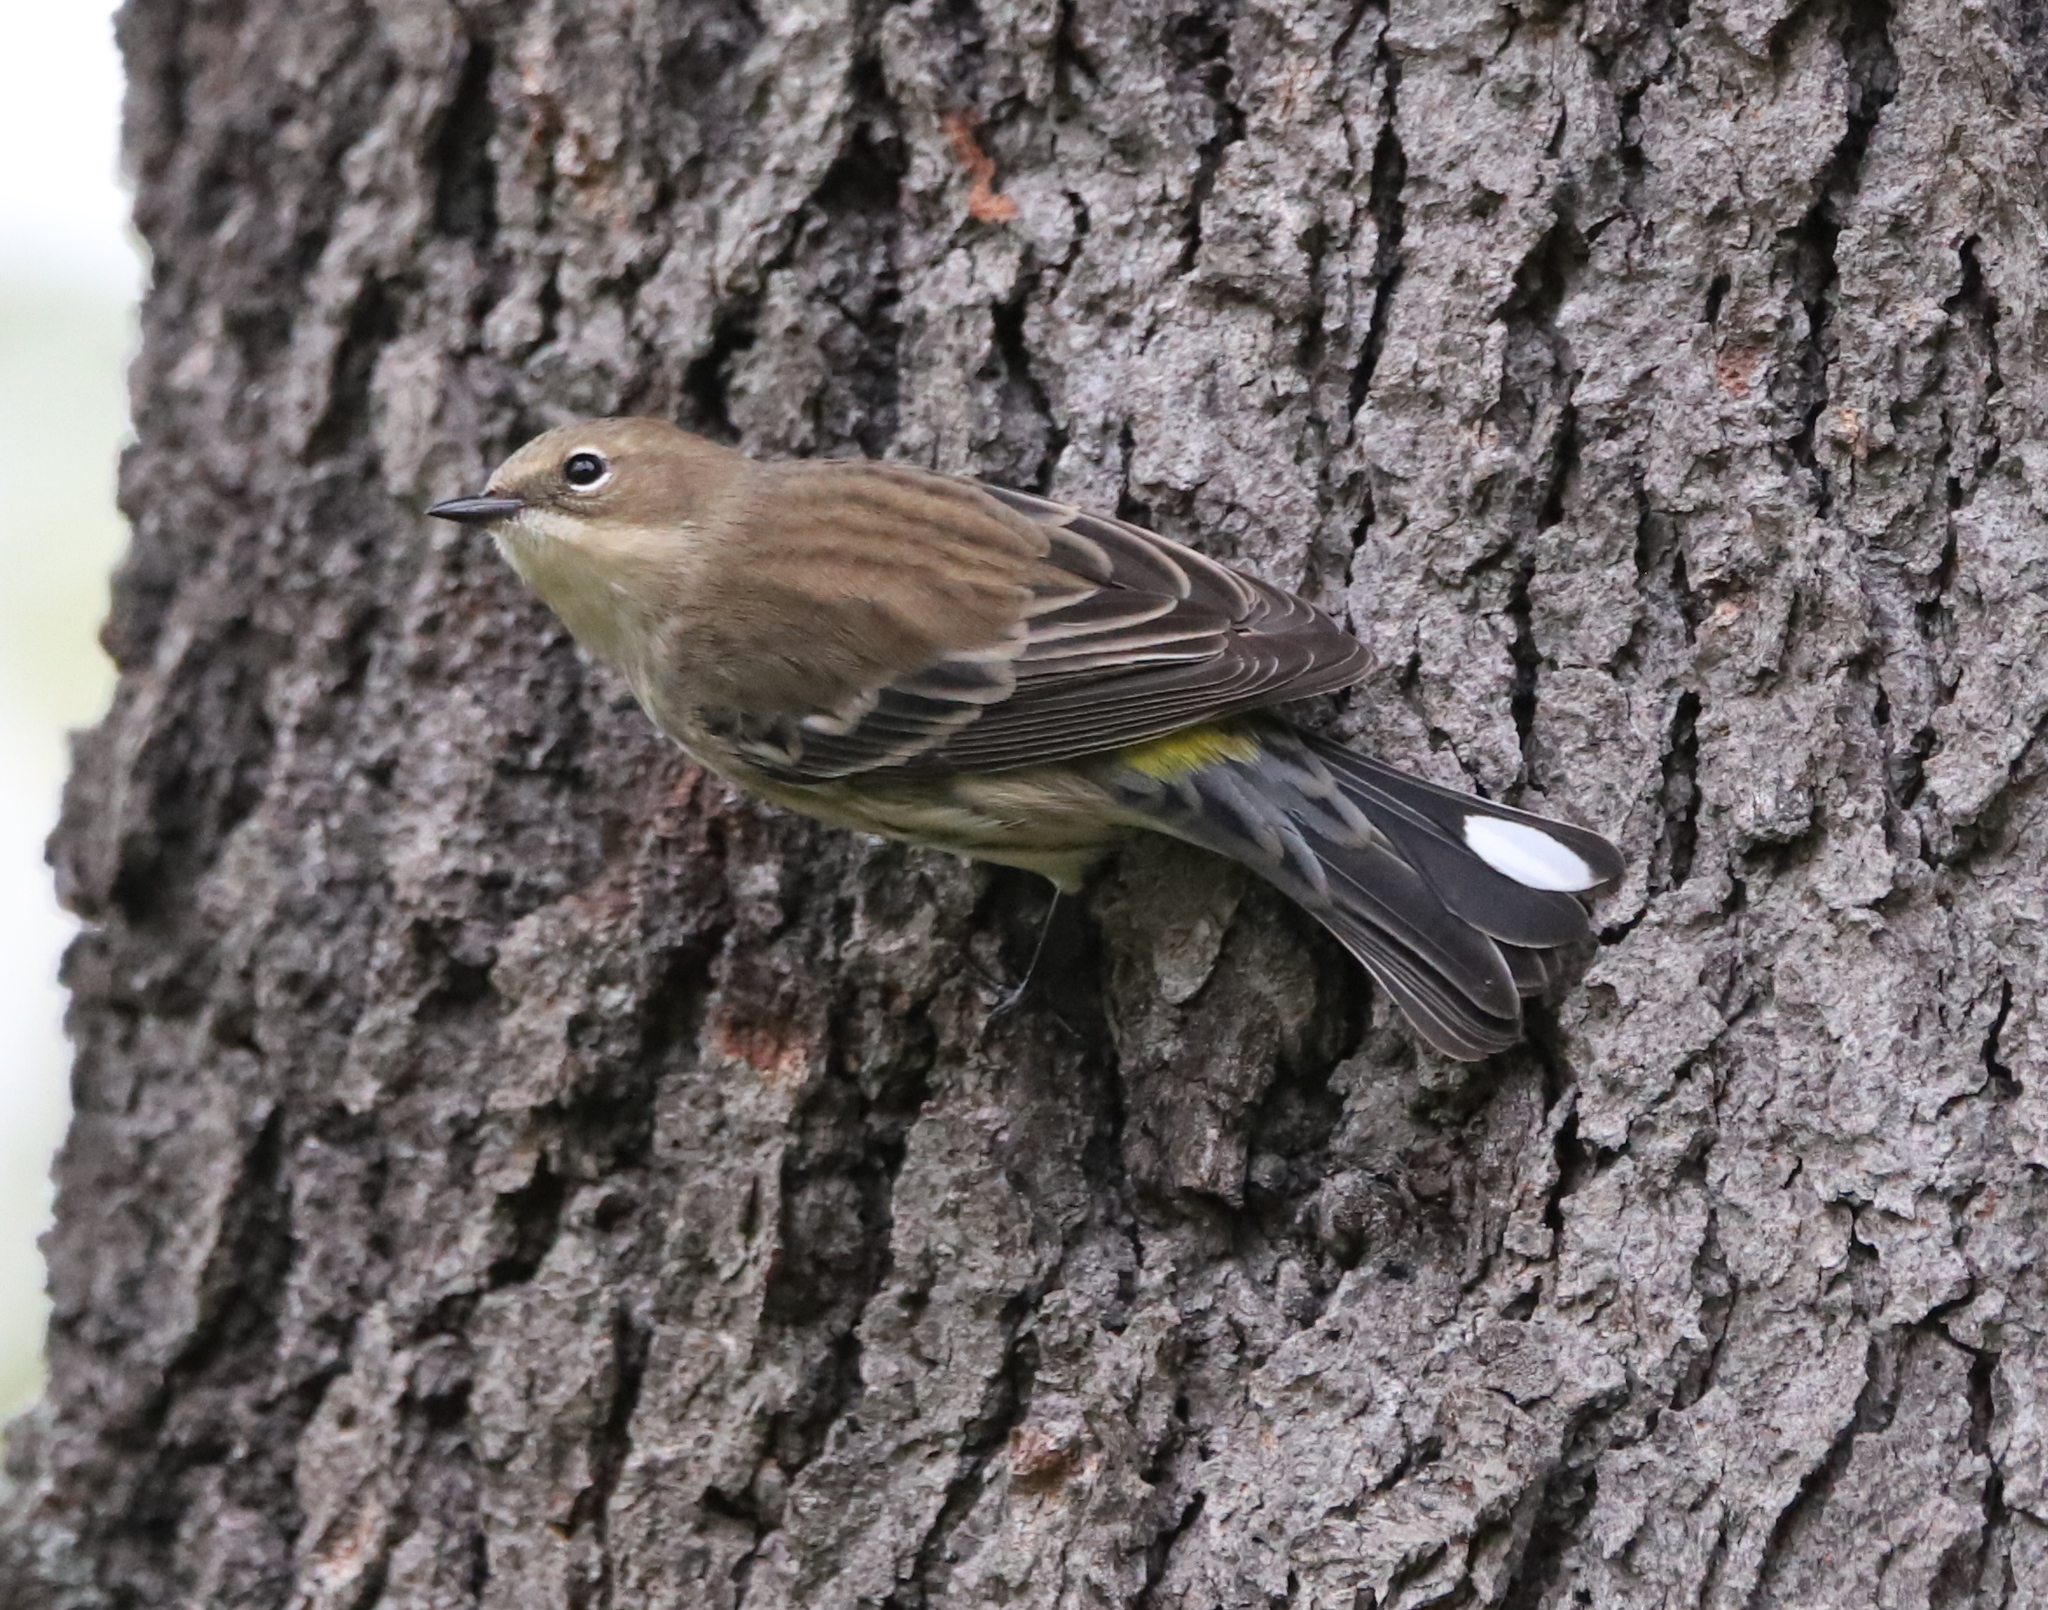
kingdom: Animalia
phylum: Chordata
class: Aves
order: Passeriformes
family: Parulidae
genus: Setophaga
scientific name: Setophaga coronata
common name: Myrtle warbler
